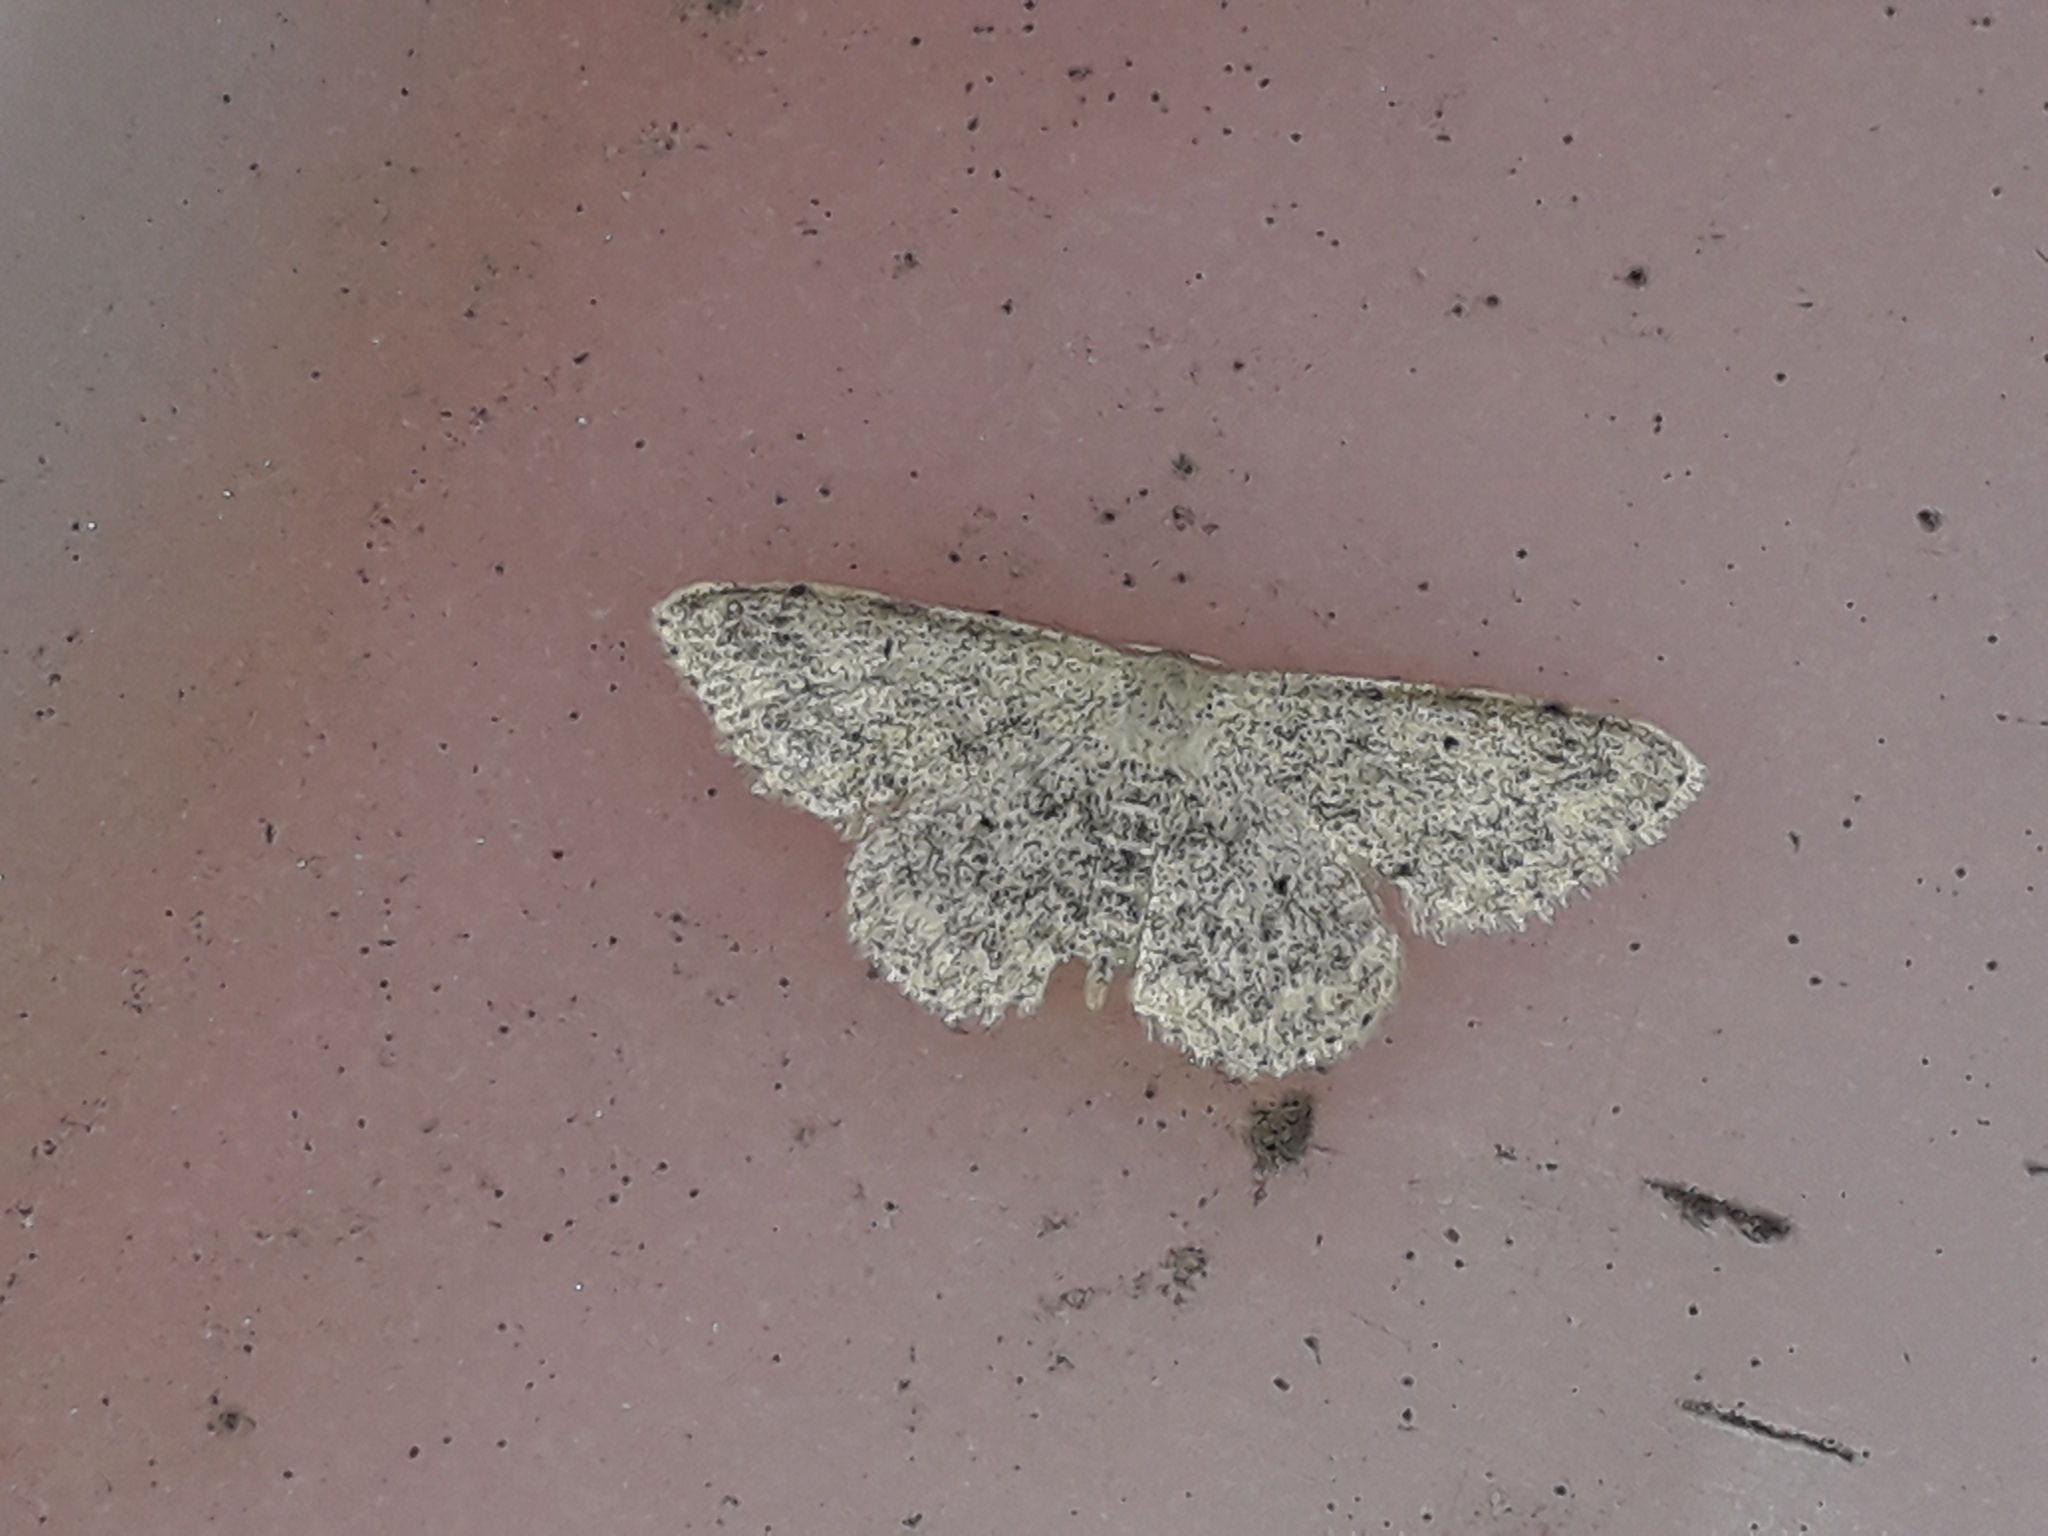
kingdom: Animalia
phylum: Arthropoda
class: Insecta
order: Lepidoptera
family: Geometridae
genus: Scopula
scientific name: Scopula marginepunctata
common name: Mullein wave
